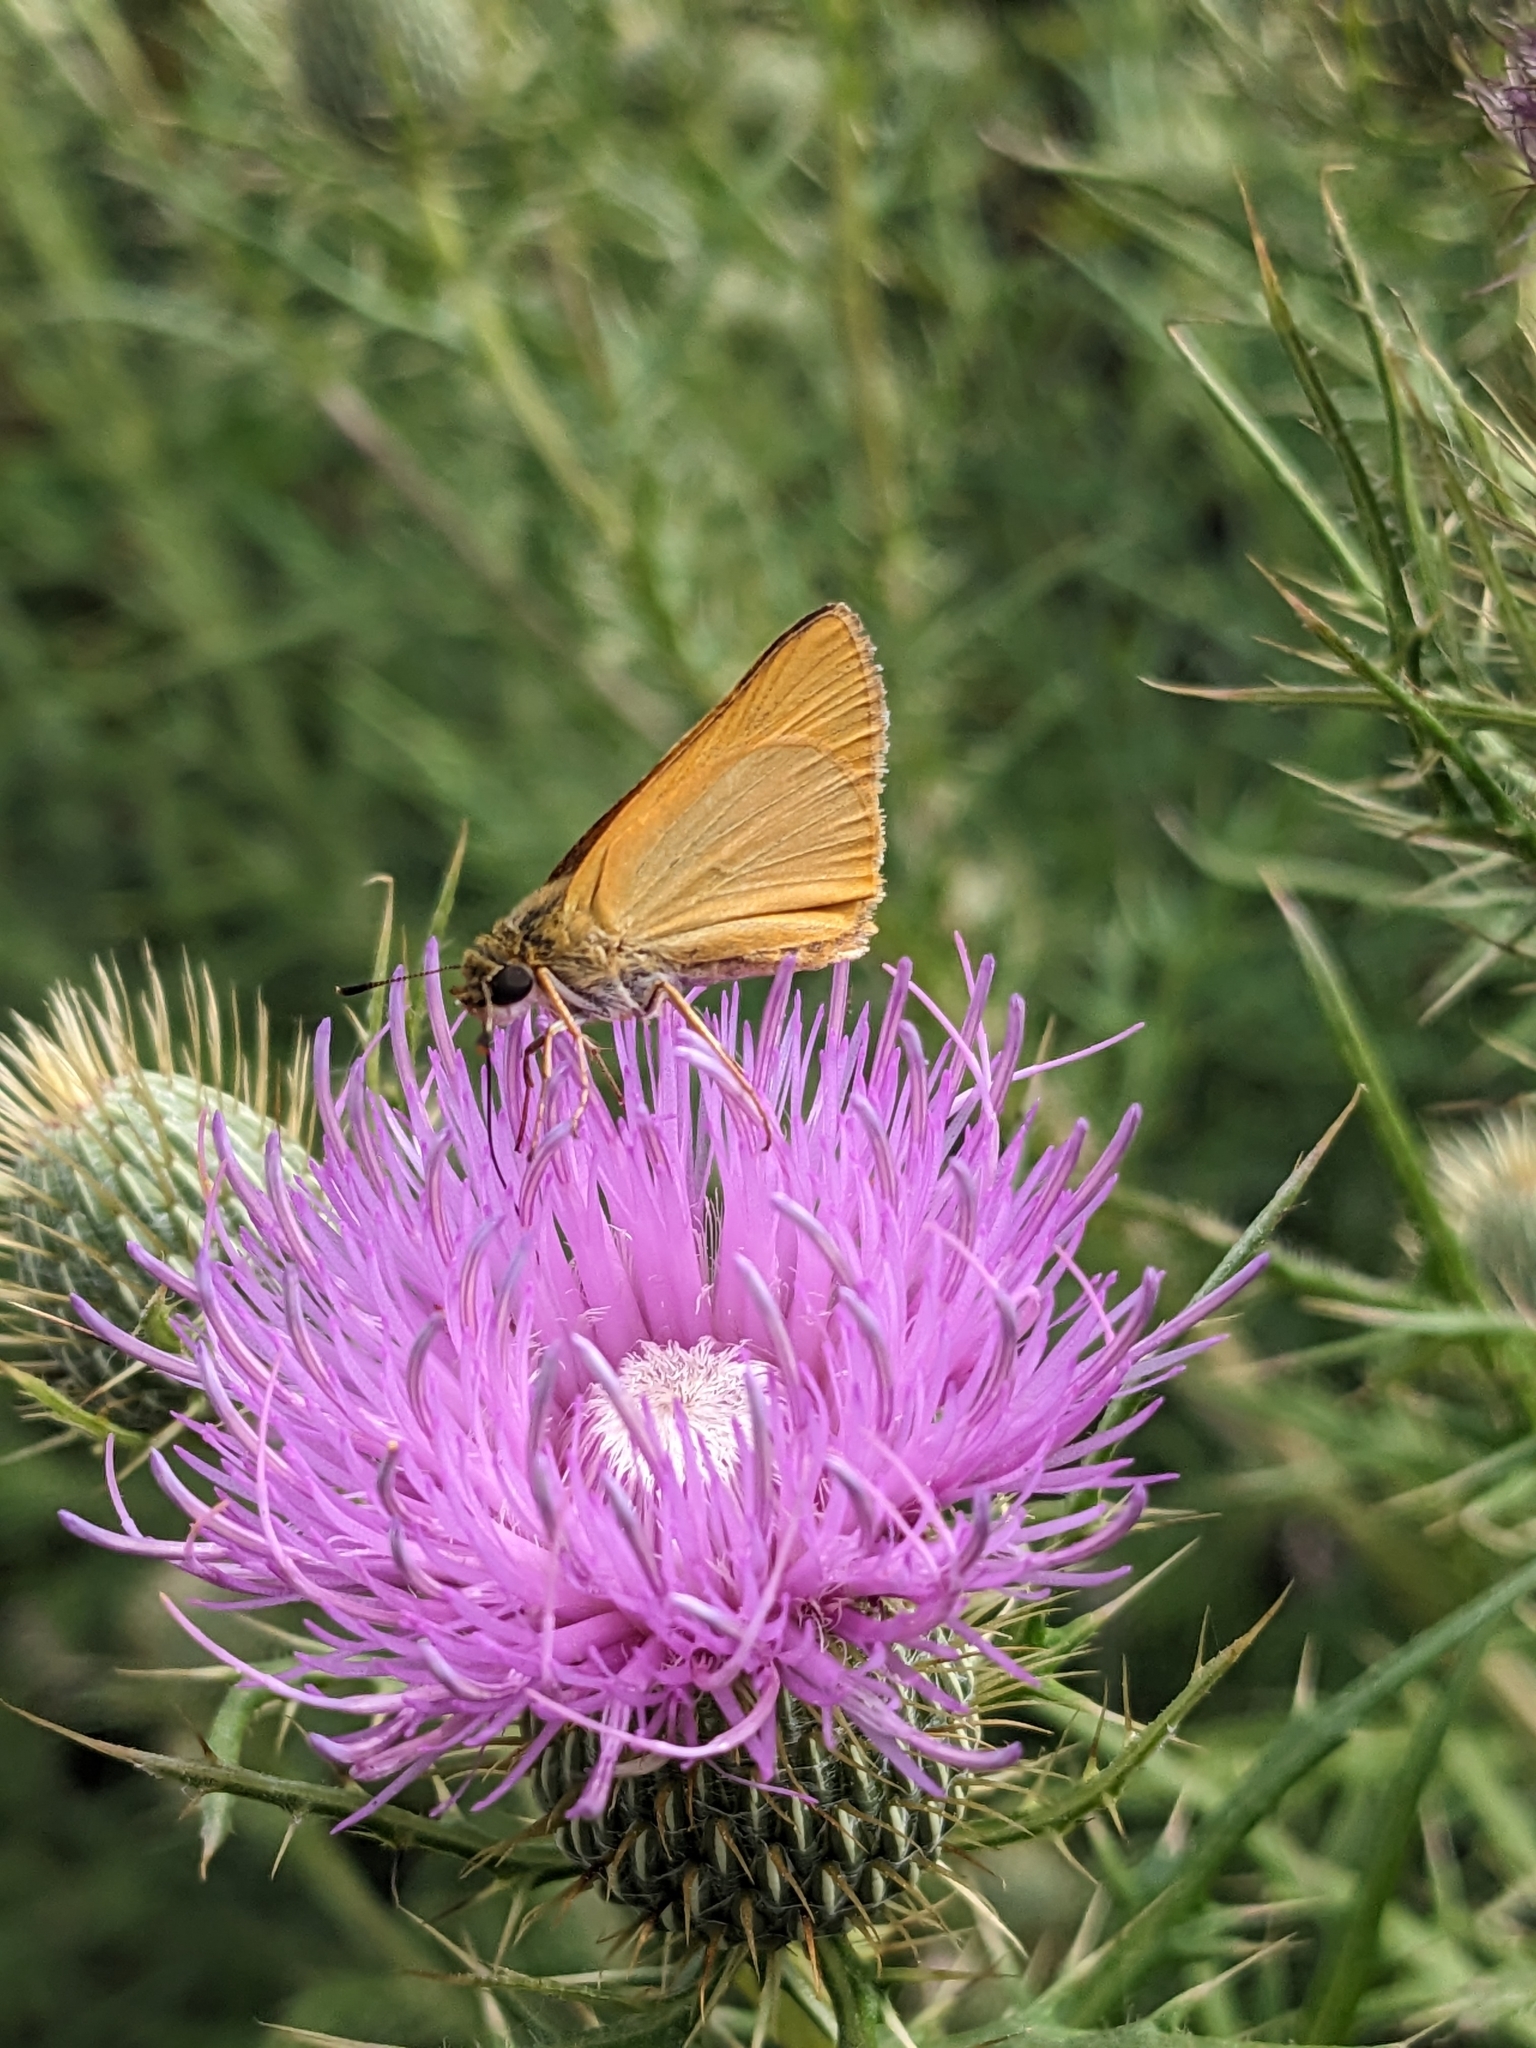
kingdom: Animalia
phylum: Arthropoda
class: Insecta
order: Lepidoptera
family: Hesperiidae
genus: Atrytone
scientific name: Atrytone delaware
